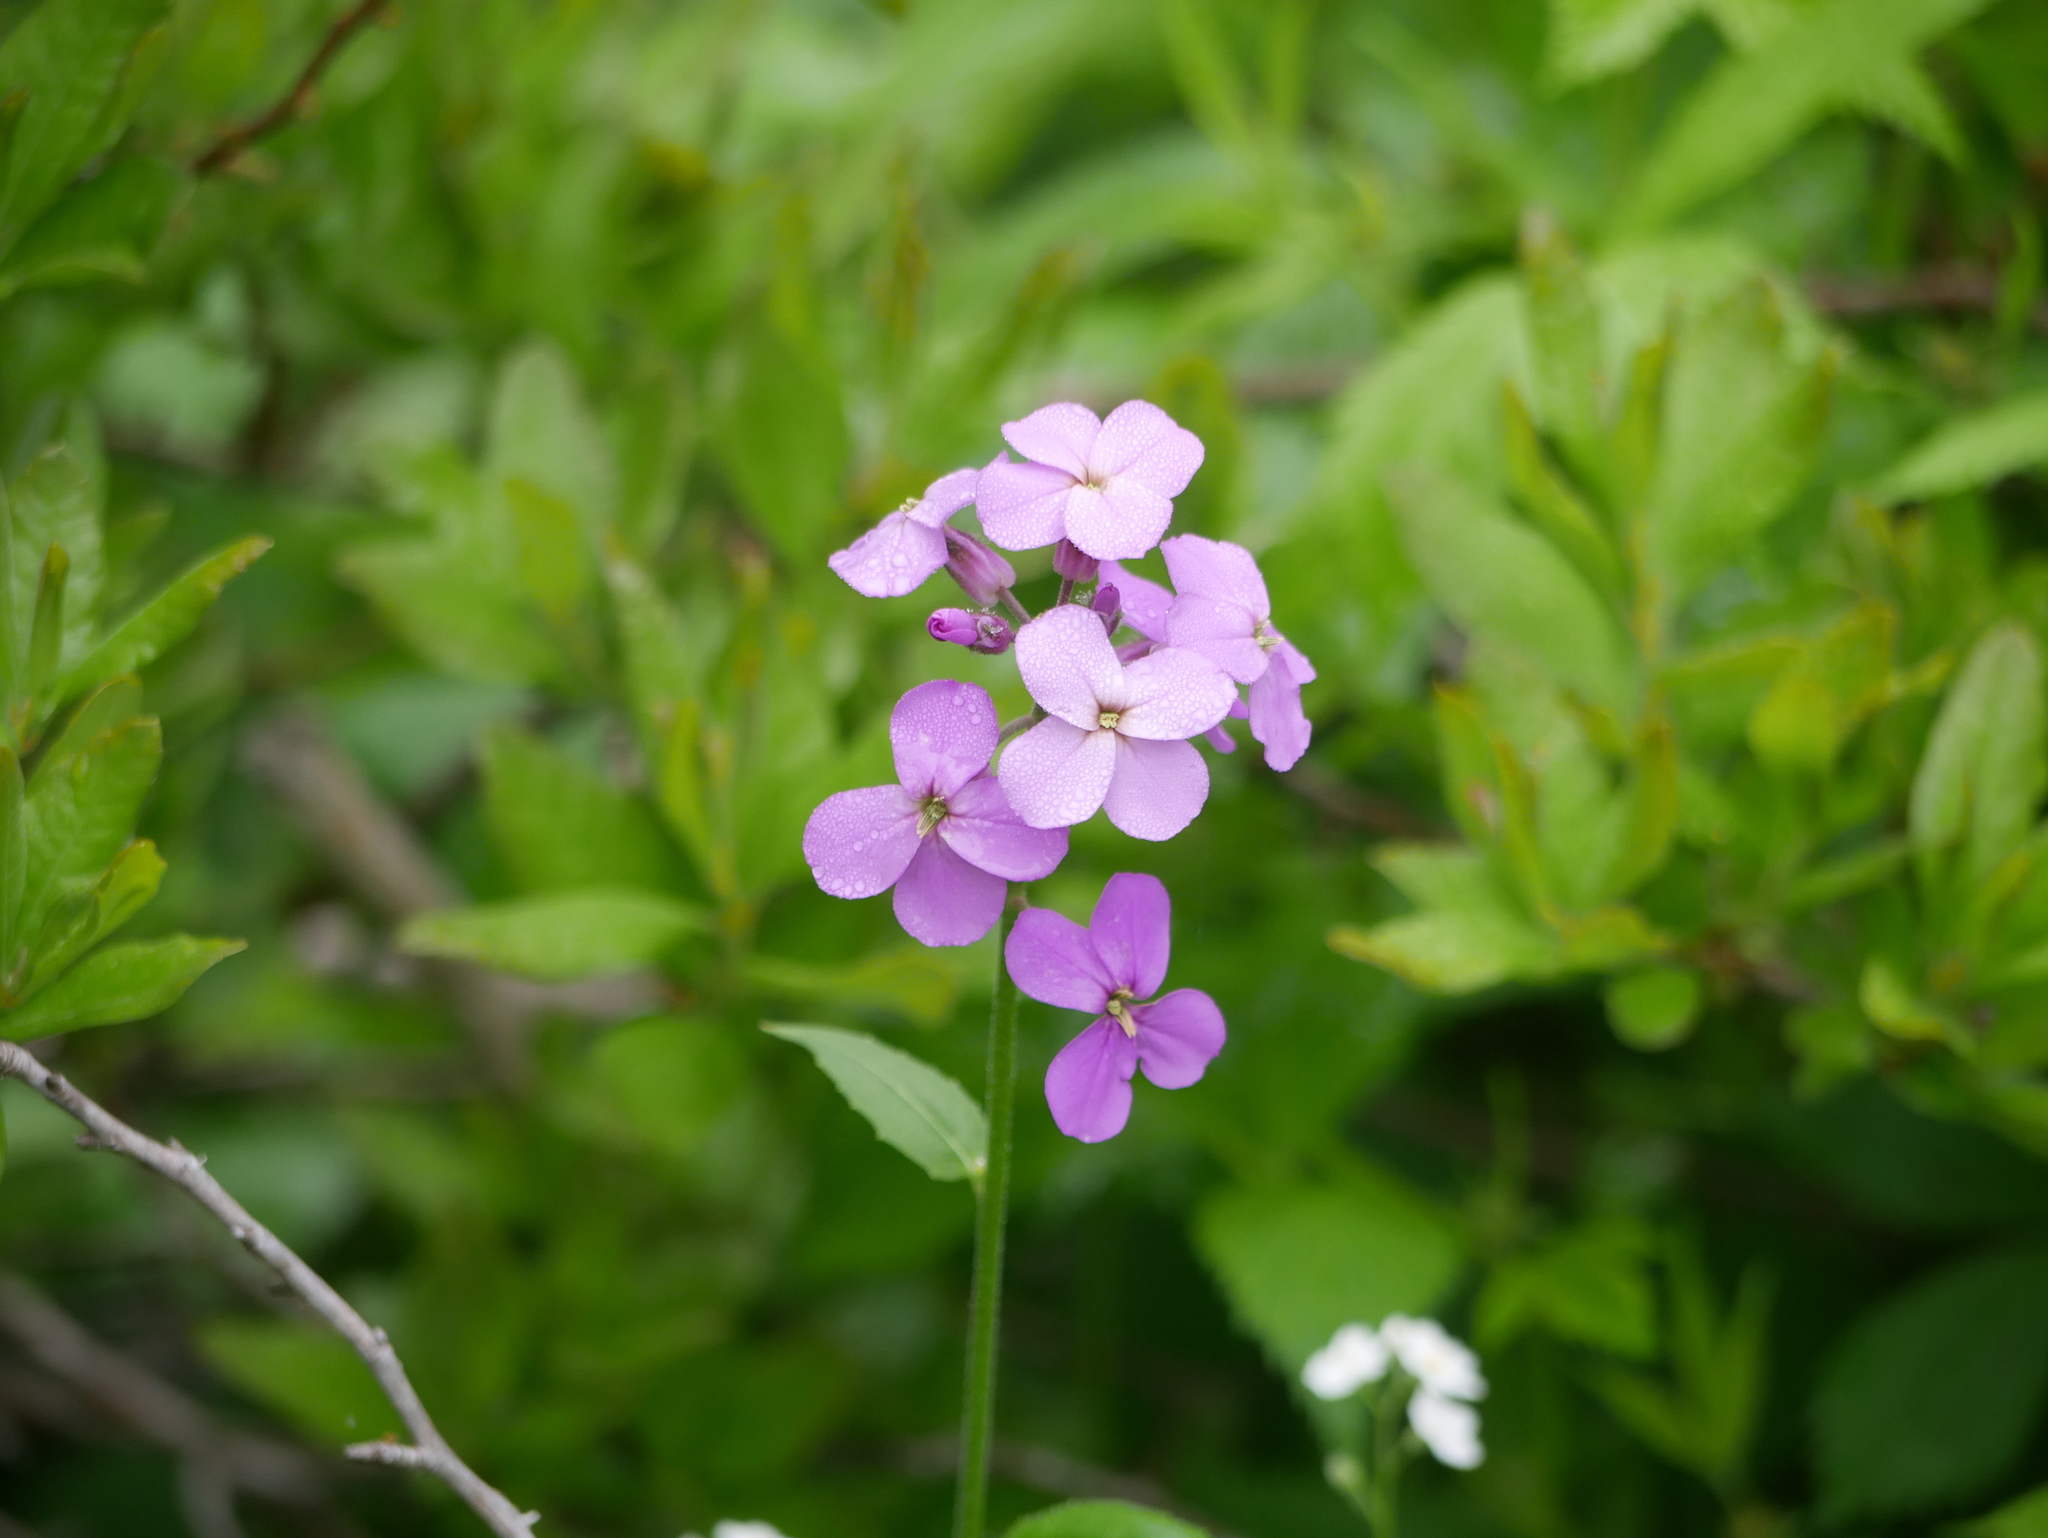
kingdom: Plantae
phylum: Tracheophyta
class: Magnoliopsida
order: Brassicales
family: Brassicaceae
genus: Hesperis
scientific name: Hesperis matronalis
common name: Dame's-violet
